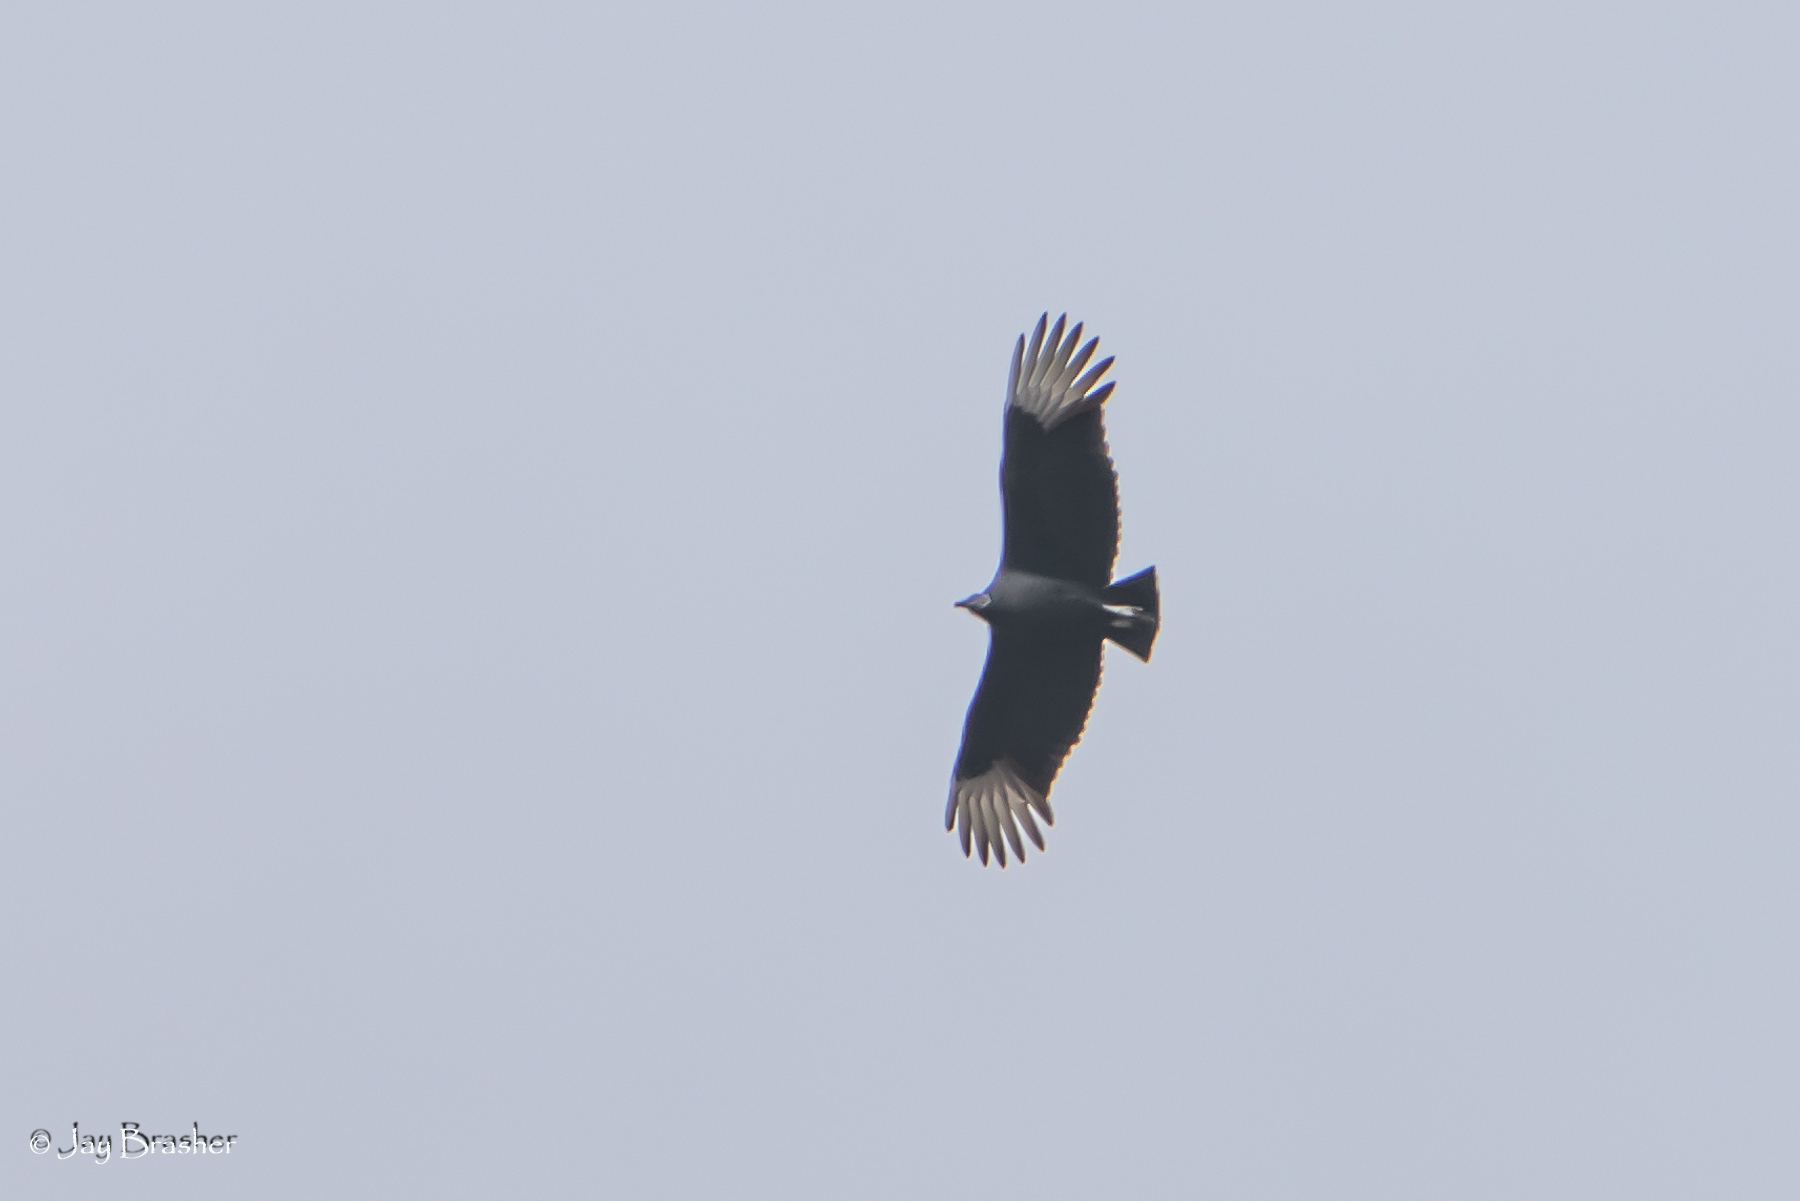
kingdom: Animalia
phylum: Chordata
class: Aves
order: Accipitriformes
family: Cathartidae
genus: Coragyps
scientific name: Coragyps atratus
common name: Black vulture
